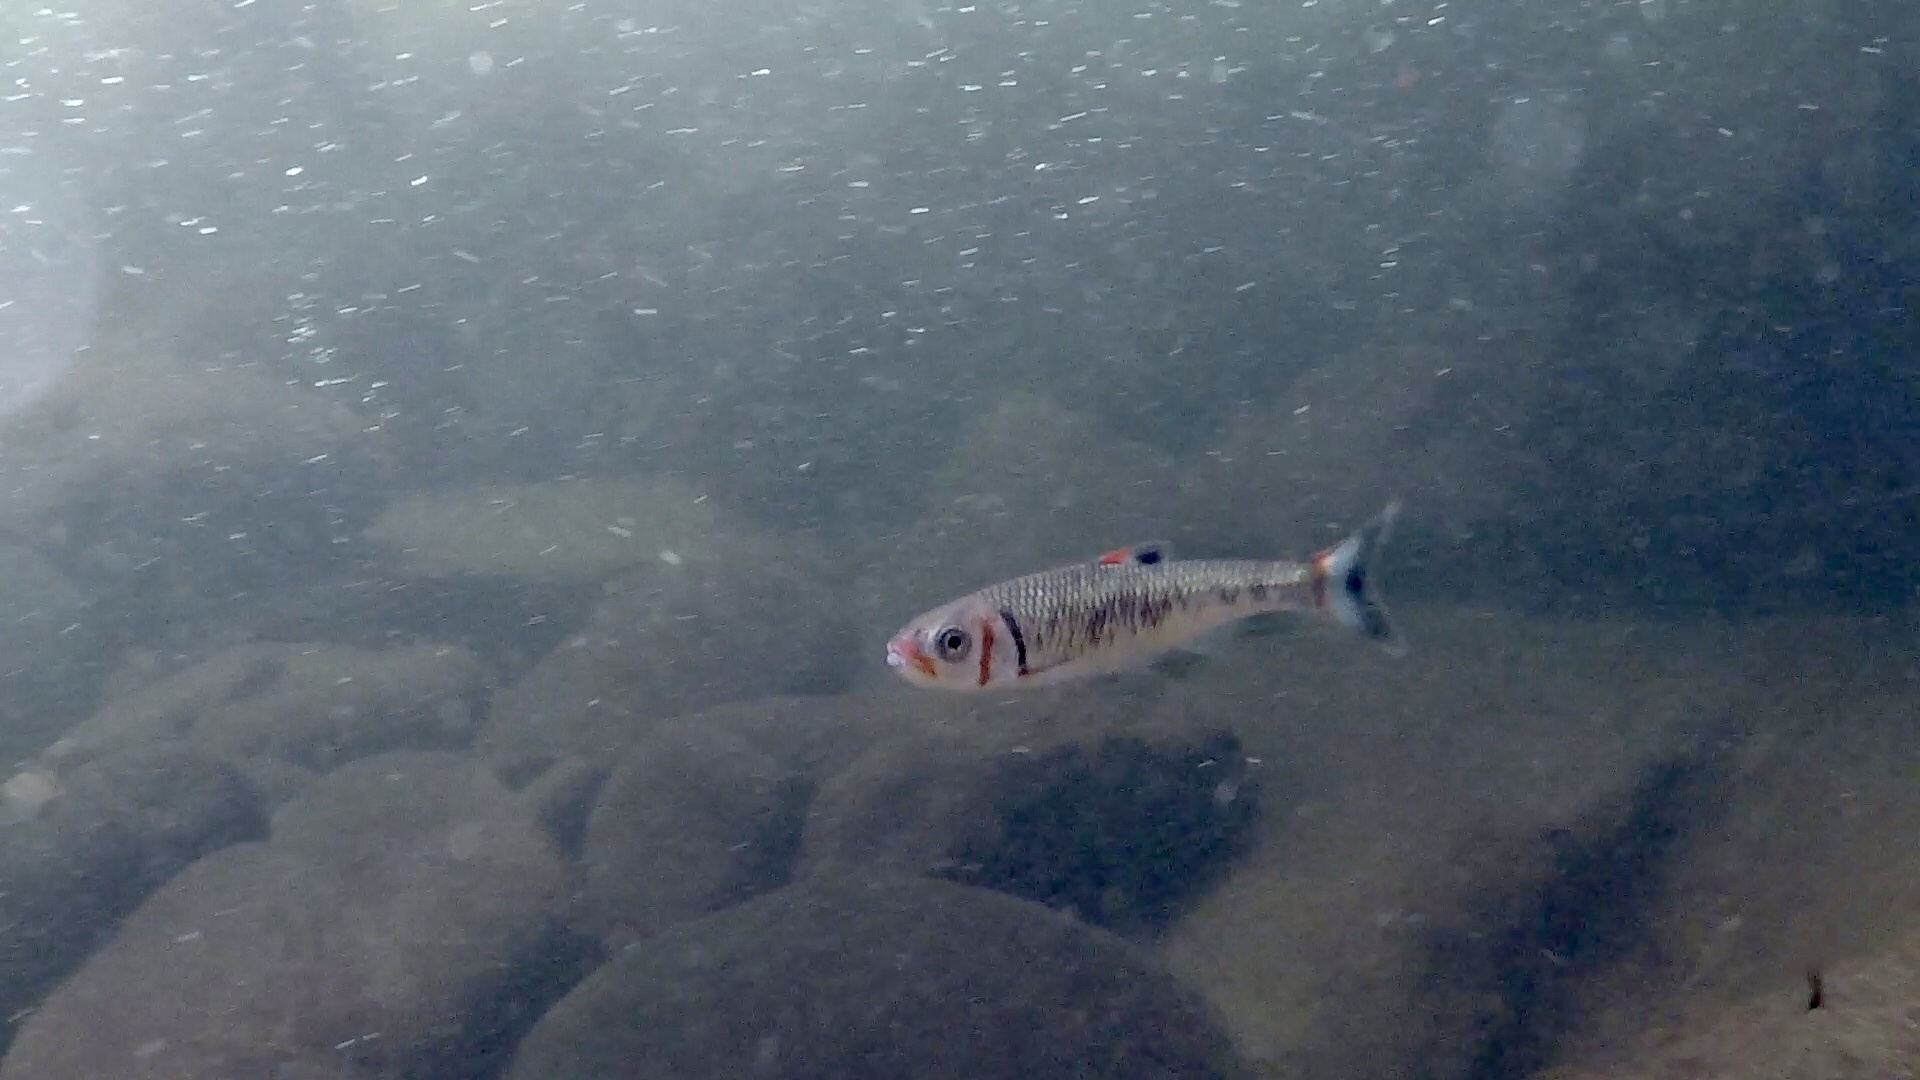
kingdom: Animalia
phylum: Chordata
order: Cypriniformes
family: Cyprinidae
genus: Luxilus
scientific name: Luxilus
